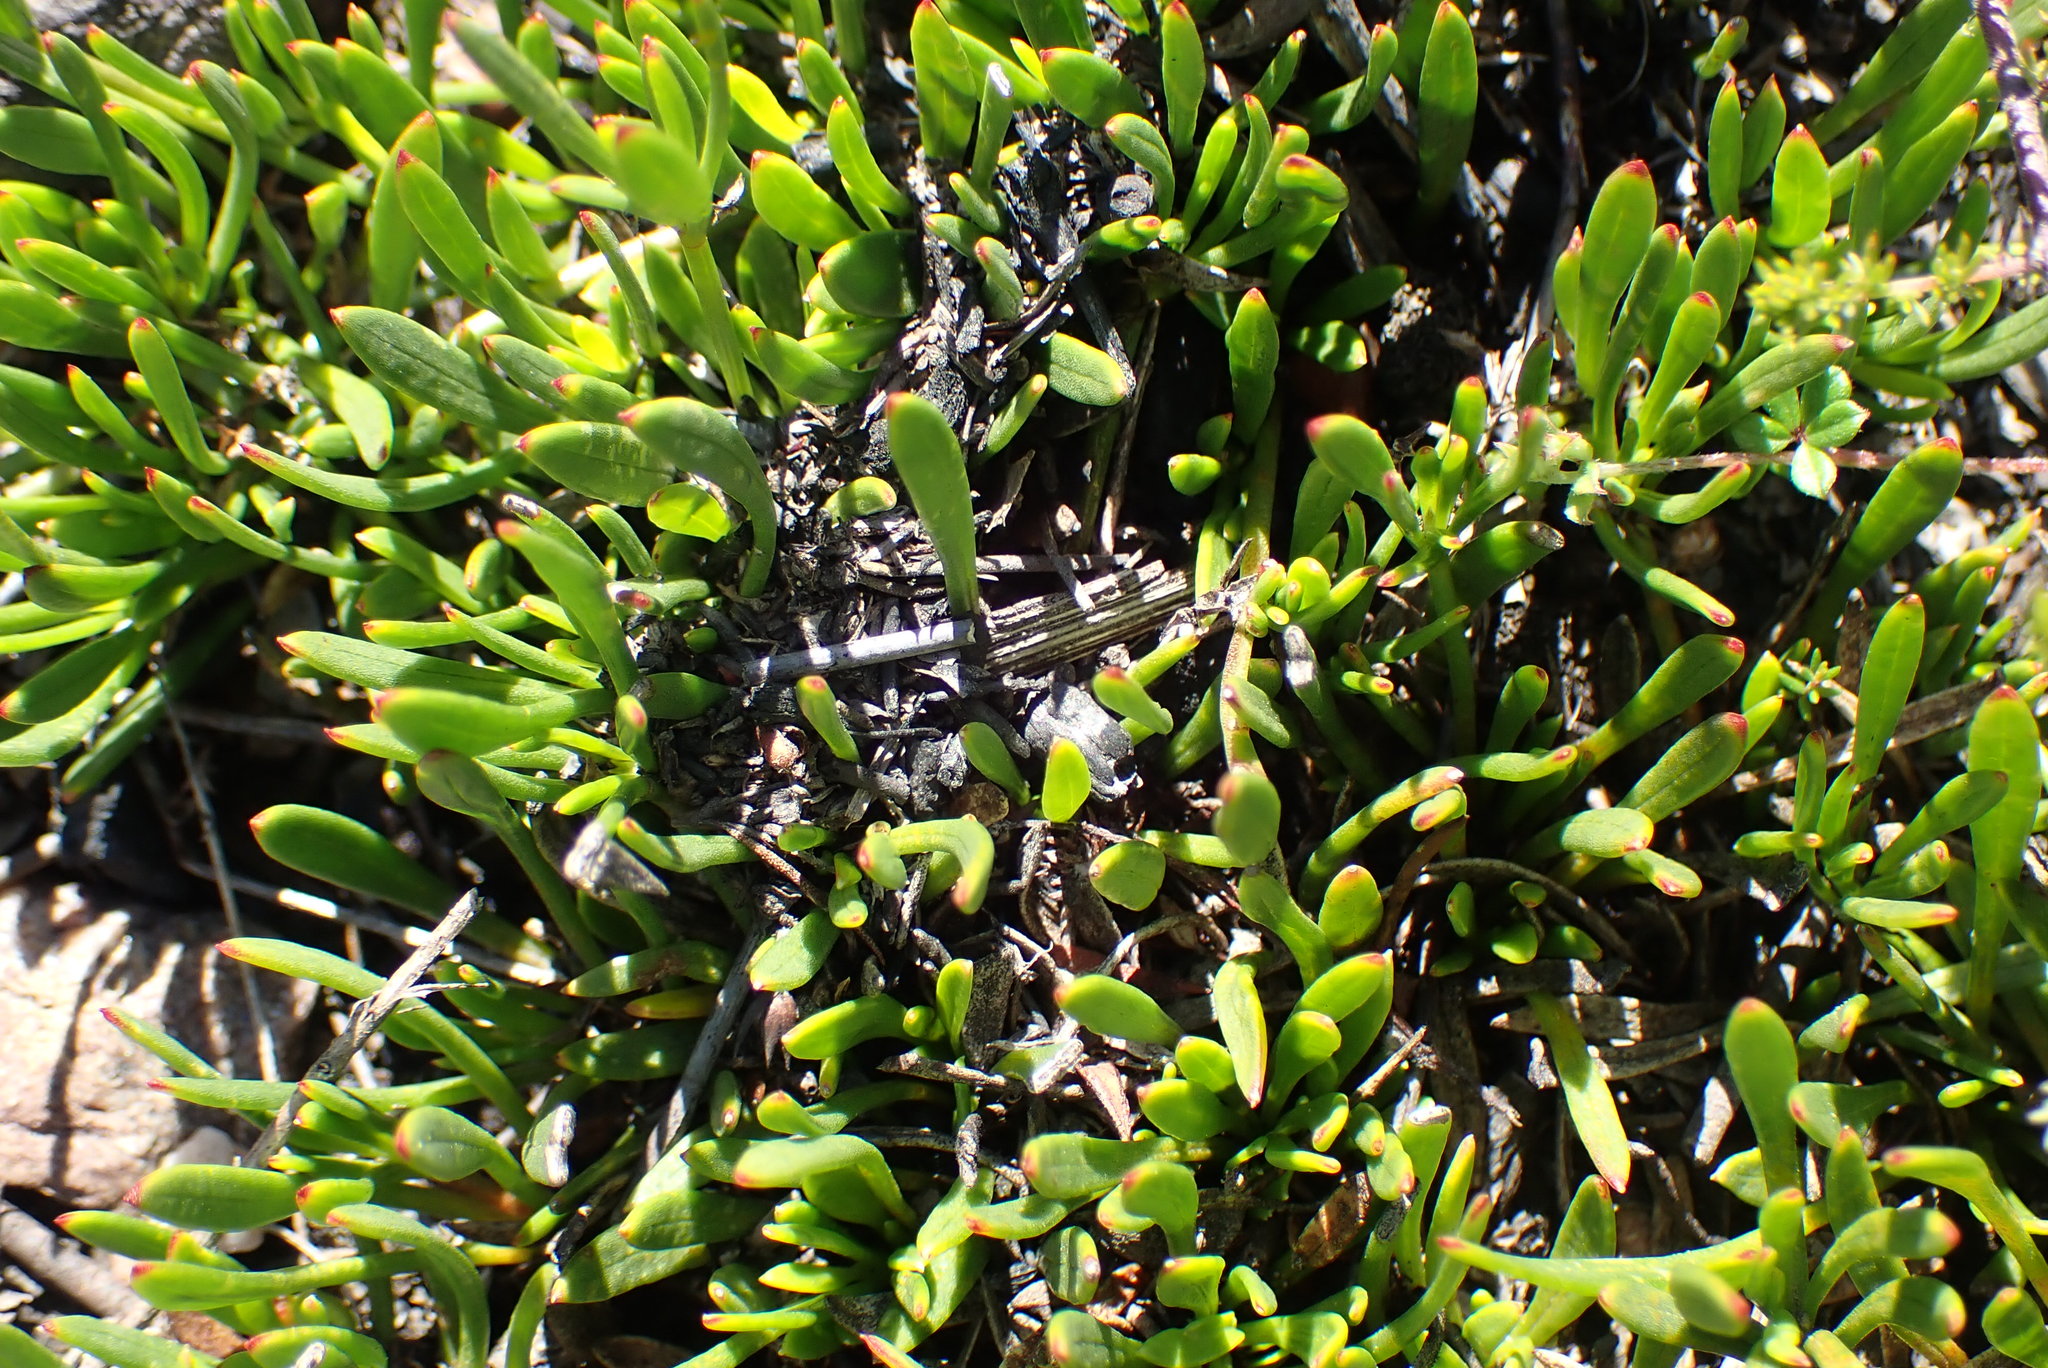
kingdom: Plantae
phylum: Tracheophyta
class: Magnoliopsida
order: Apiales
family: Apiaceae
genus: Centella
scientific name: Centella sessilis
